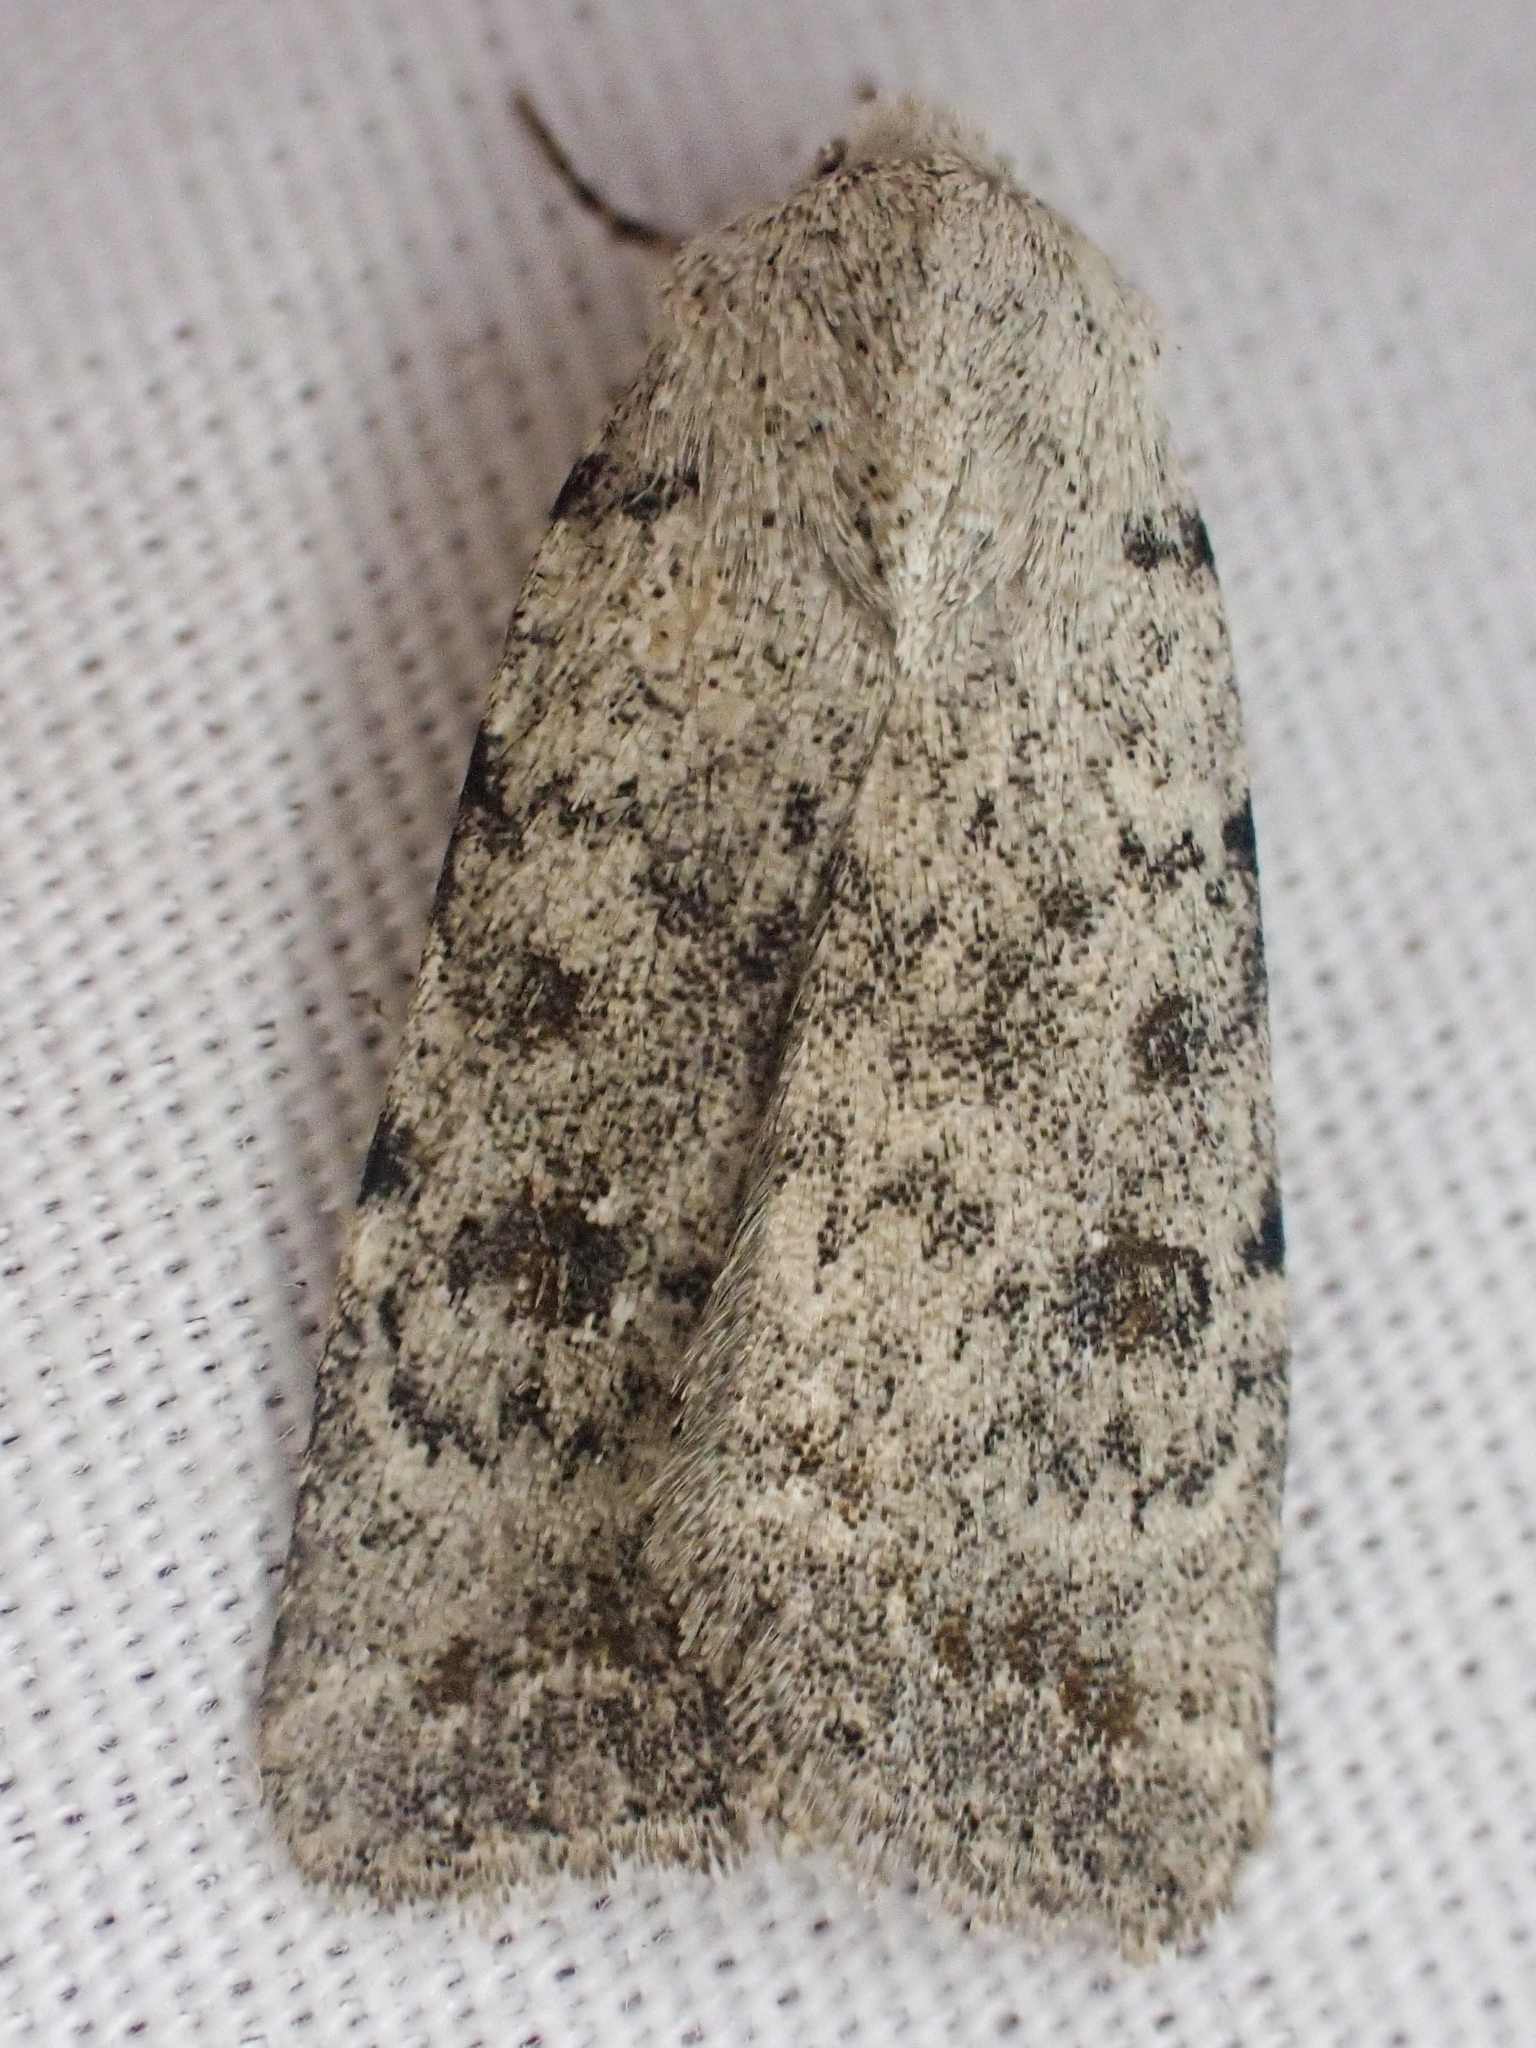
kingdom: Animalia
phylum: Arthropoda
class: Insecta
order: Lepidoptera
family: Noctuidae
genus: Caradrina
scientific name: Caradrina montana
